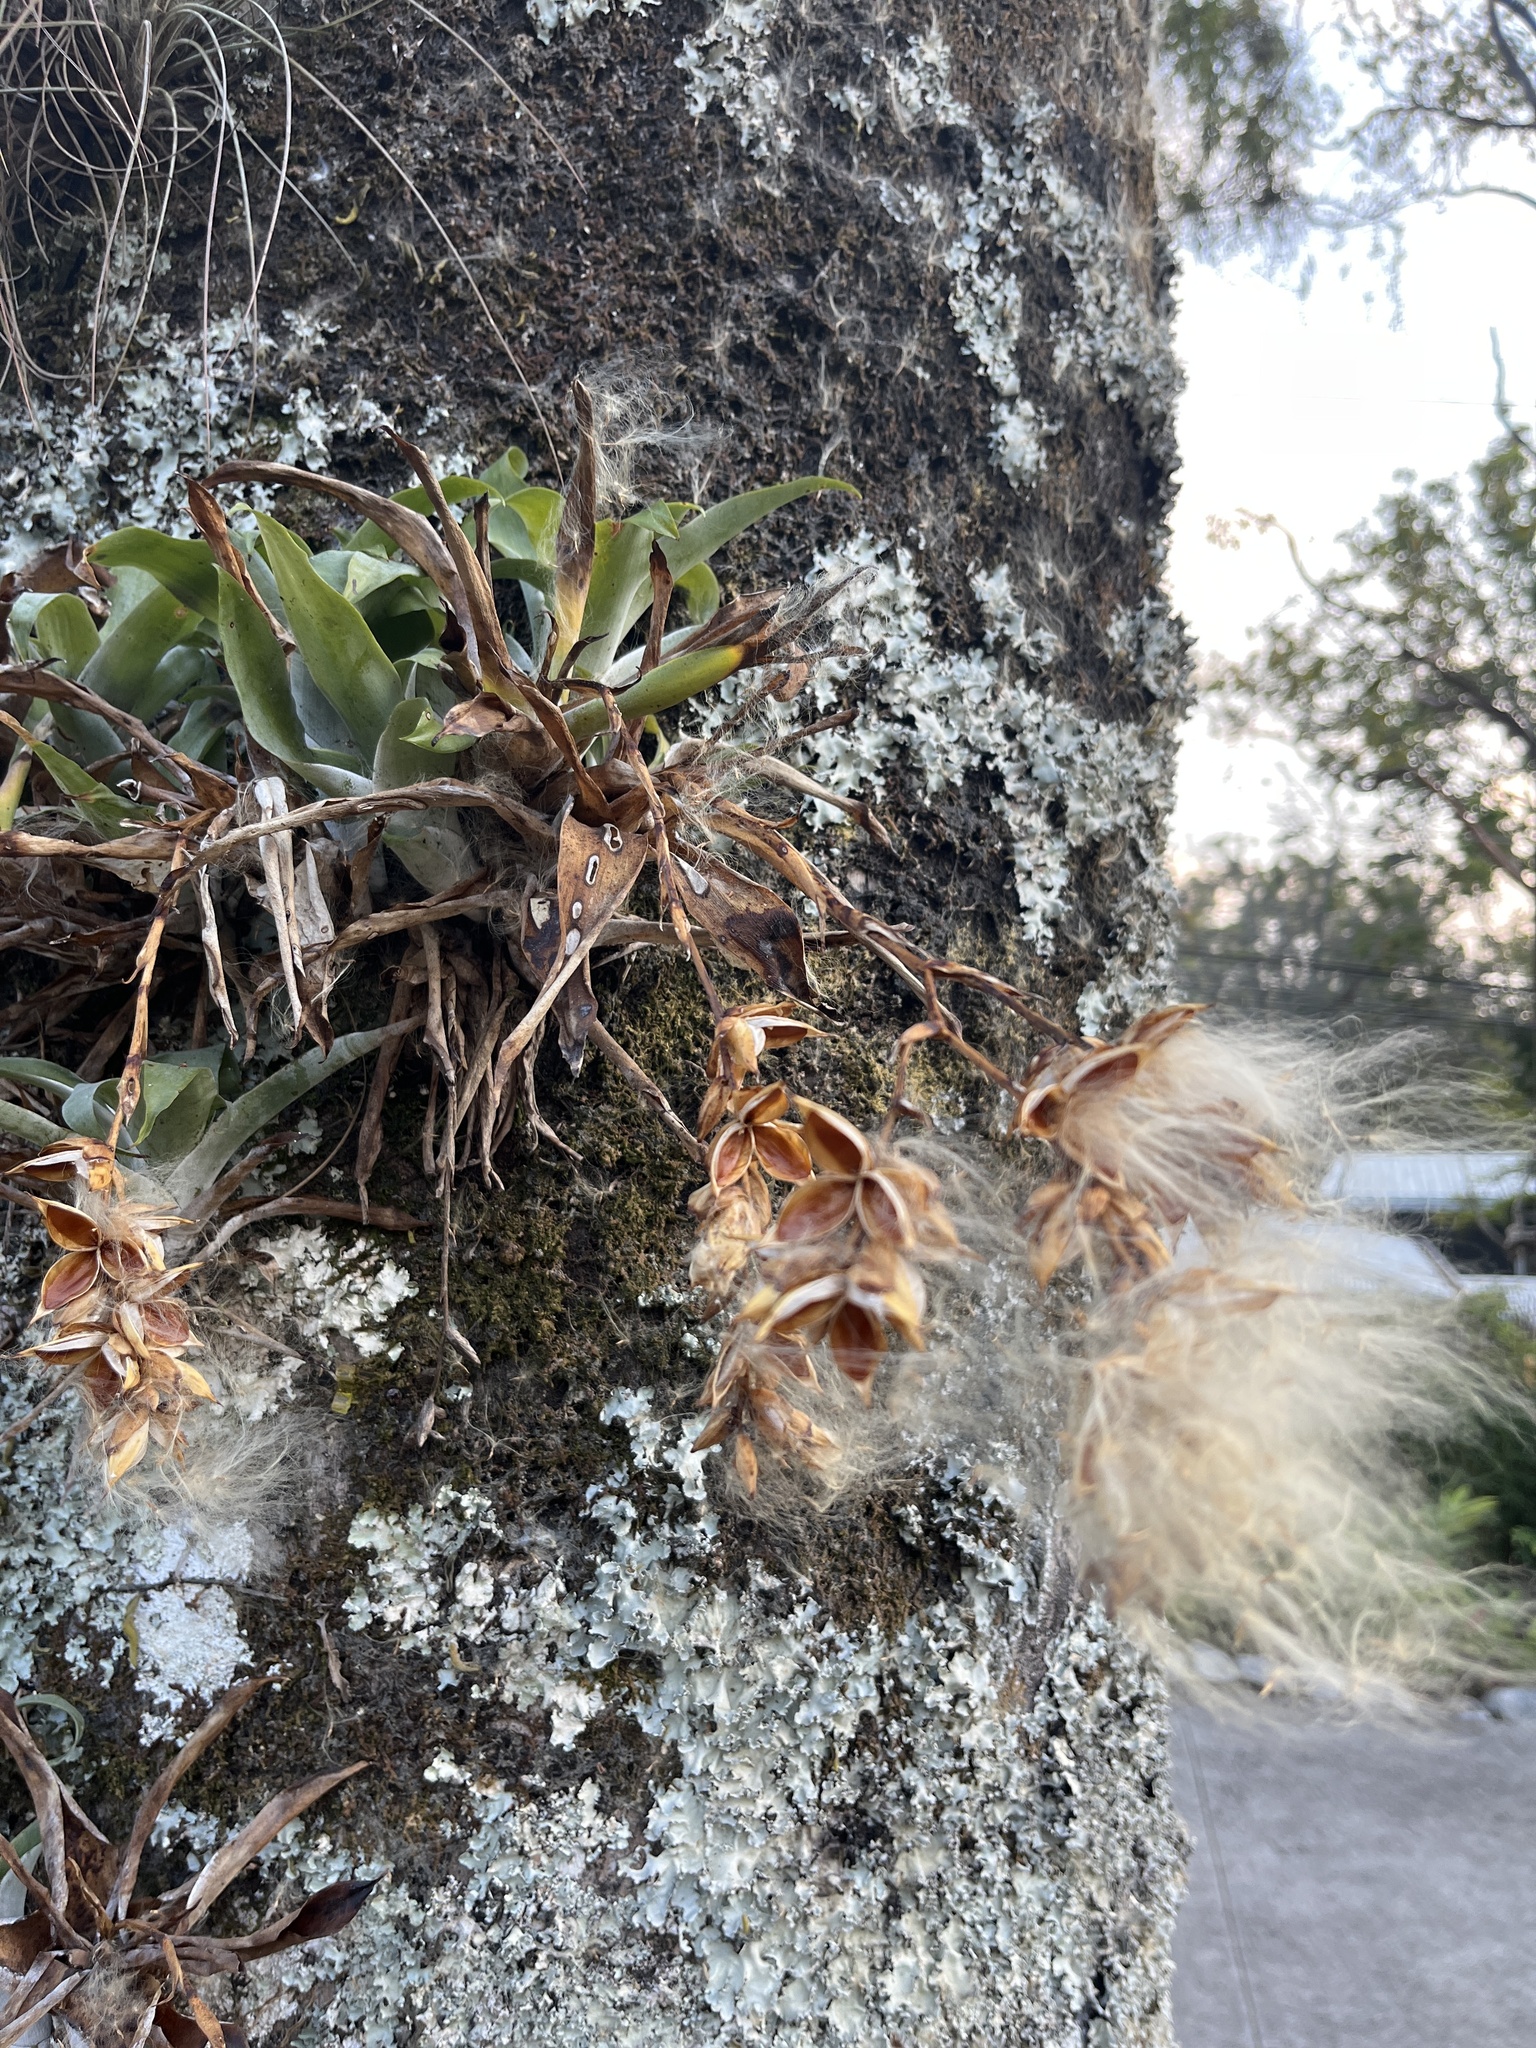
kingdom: Plantae
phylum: Tracheophyta
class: Liliopsida
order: Poales
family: Bromeliaceae
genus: Catopsis
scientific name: Catopsis nutans
